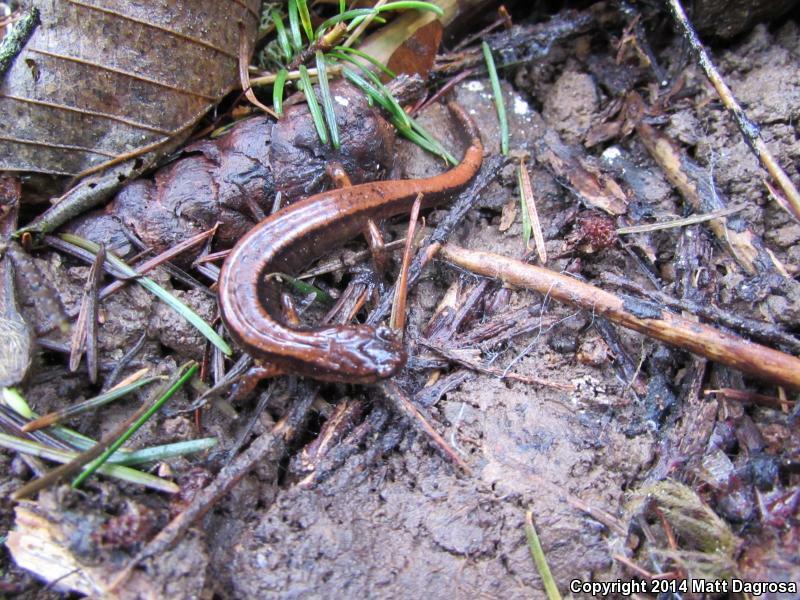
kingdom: Animalia
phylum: Chordata
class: Amphibia
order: Caudata
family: Plethodontidae
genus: Plethodon
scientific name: Plethodon vehiculum
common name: Western red-backed salamander
